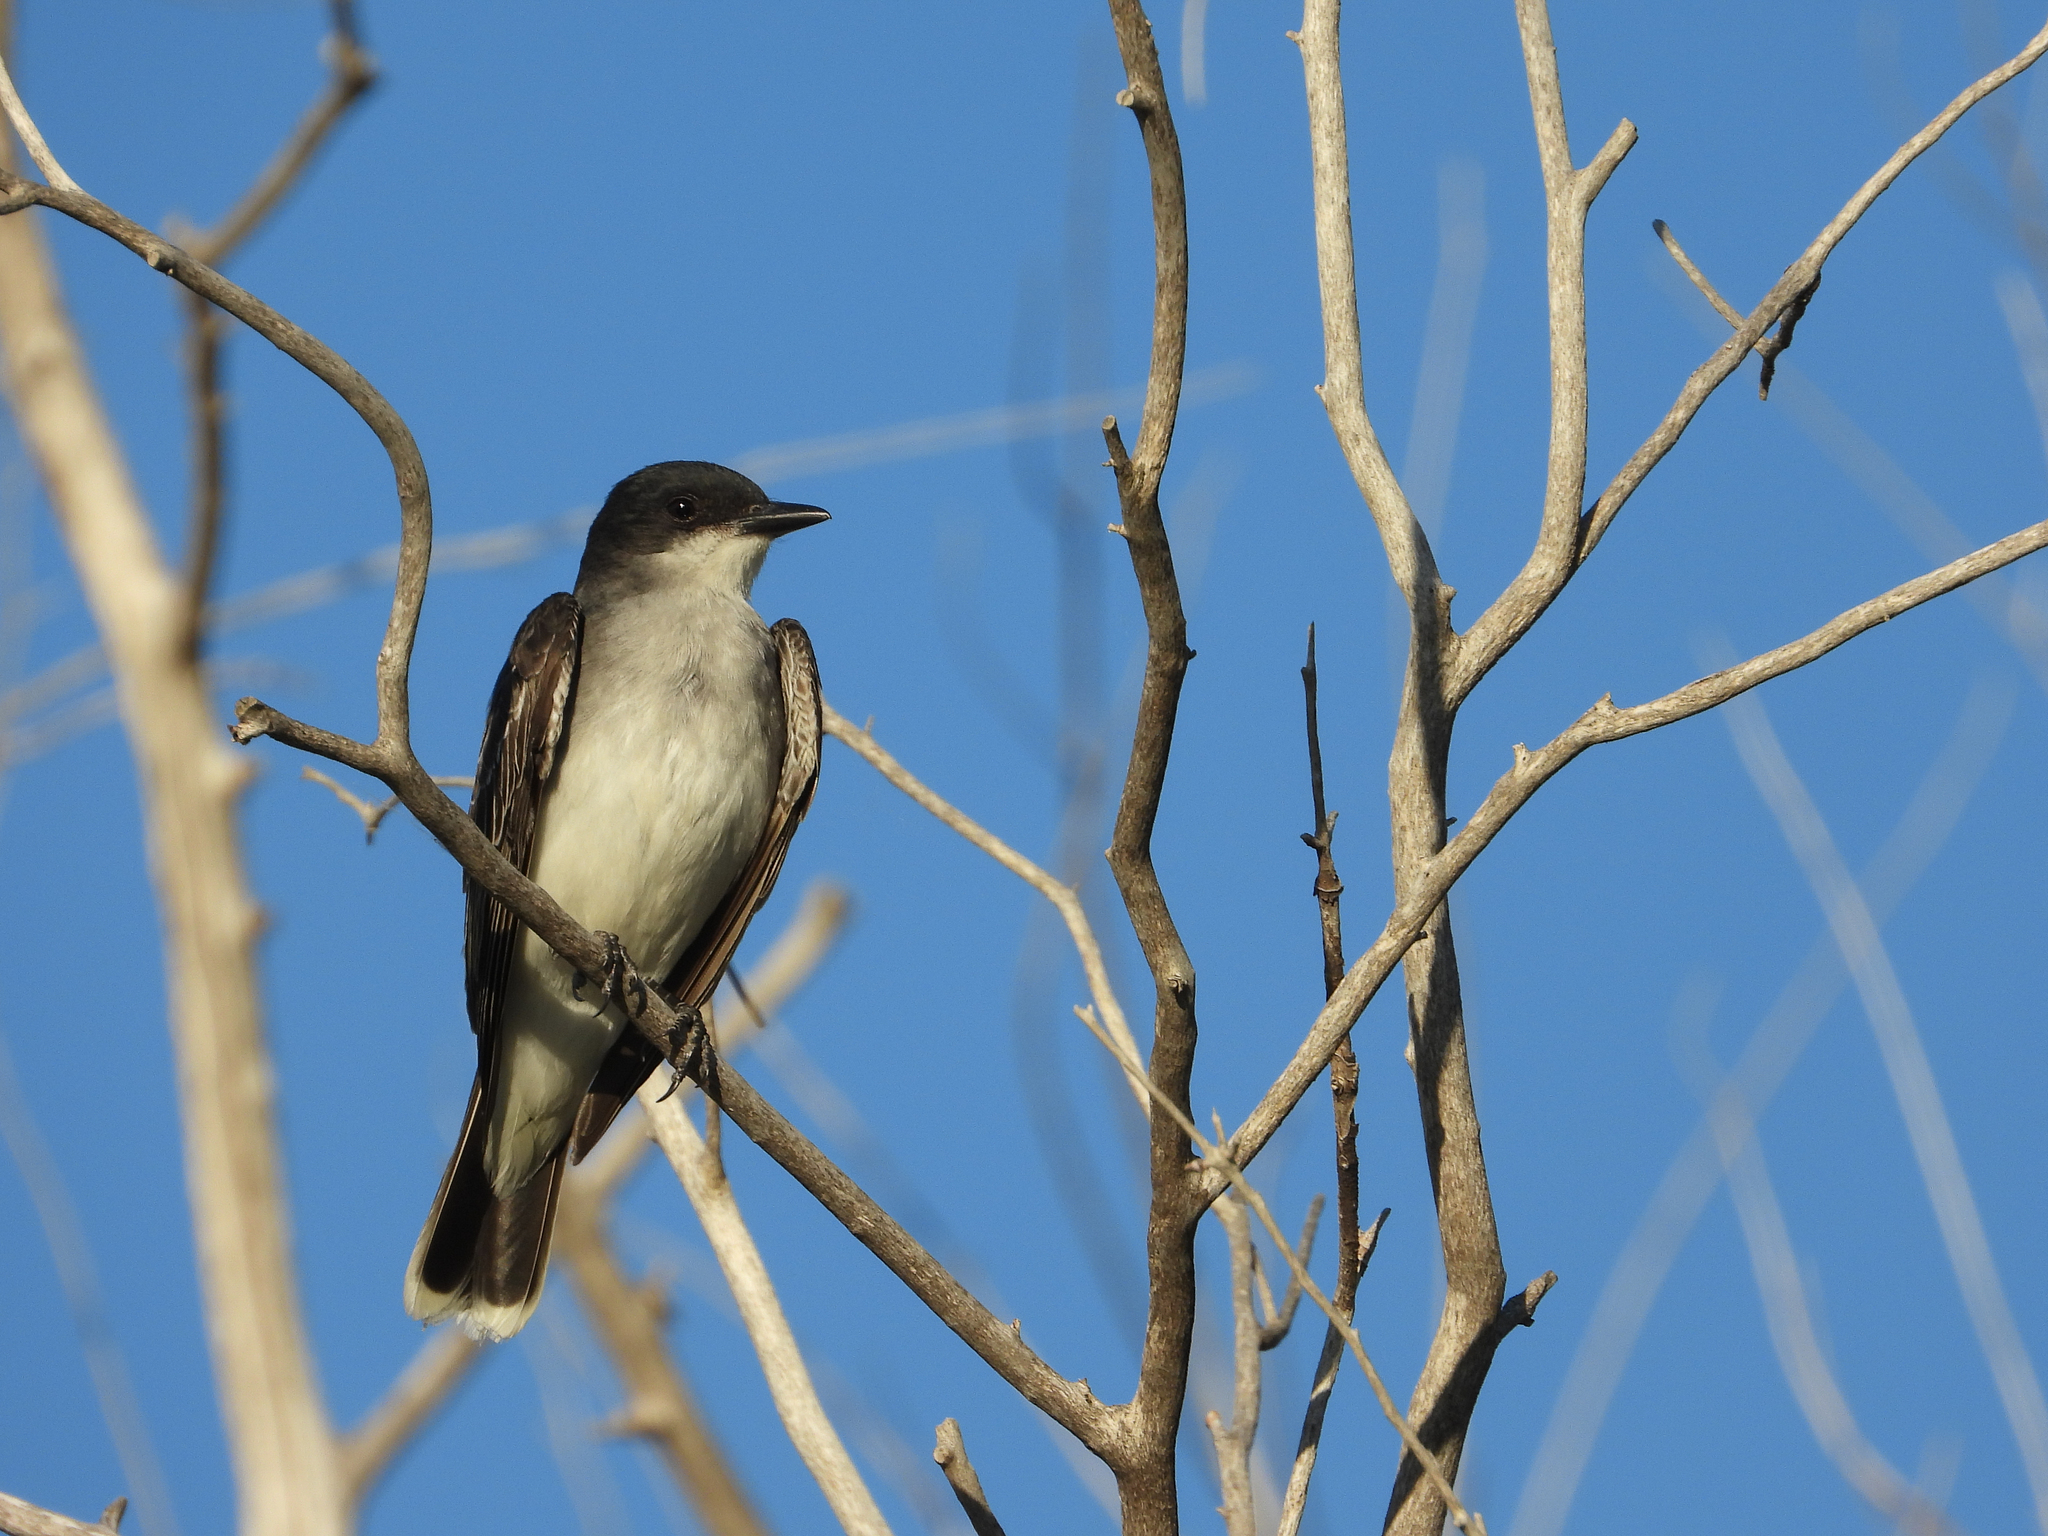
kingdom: Animalia
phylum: Chordata
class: Aves
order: Passeriformes
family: Tyrannidae
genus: Tyrannus
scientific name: Tyrannus tyrannus
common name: Eastern kingbird
